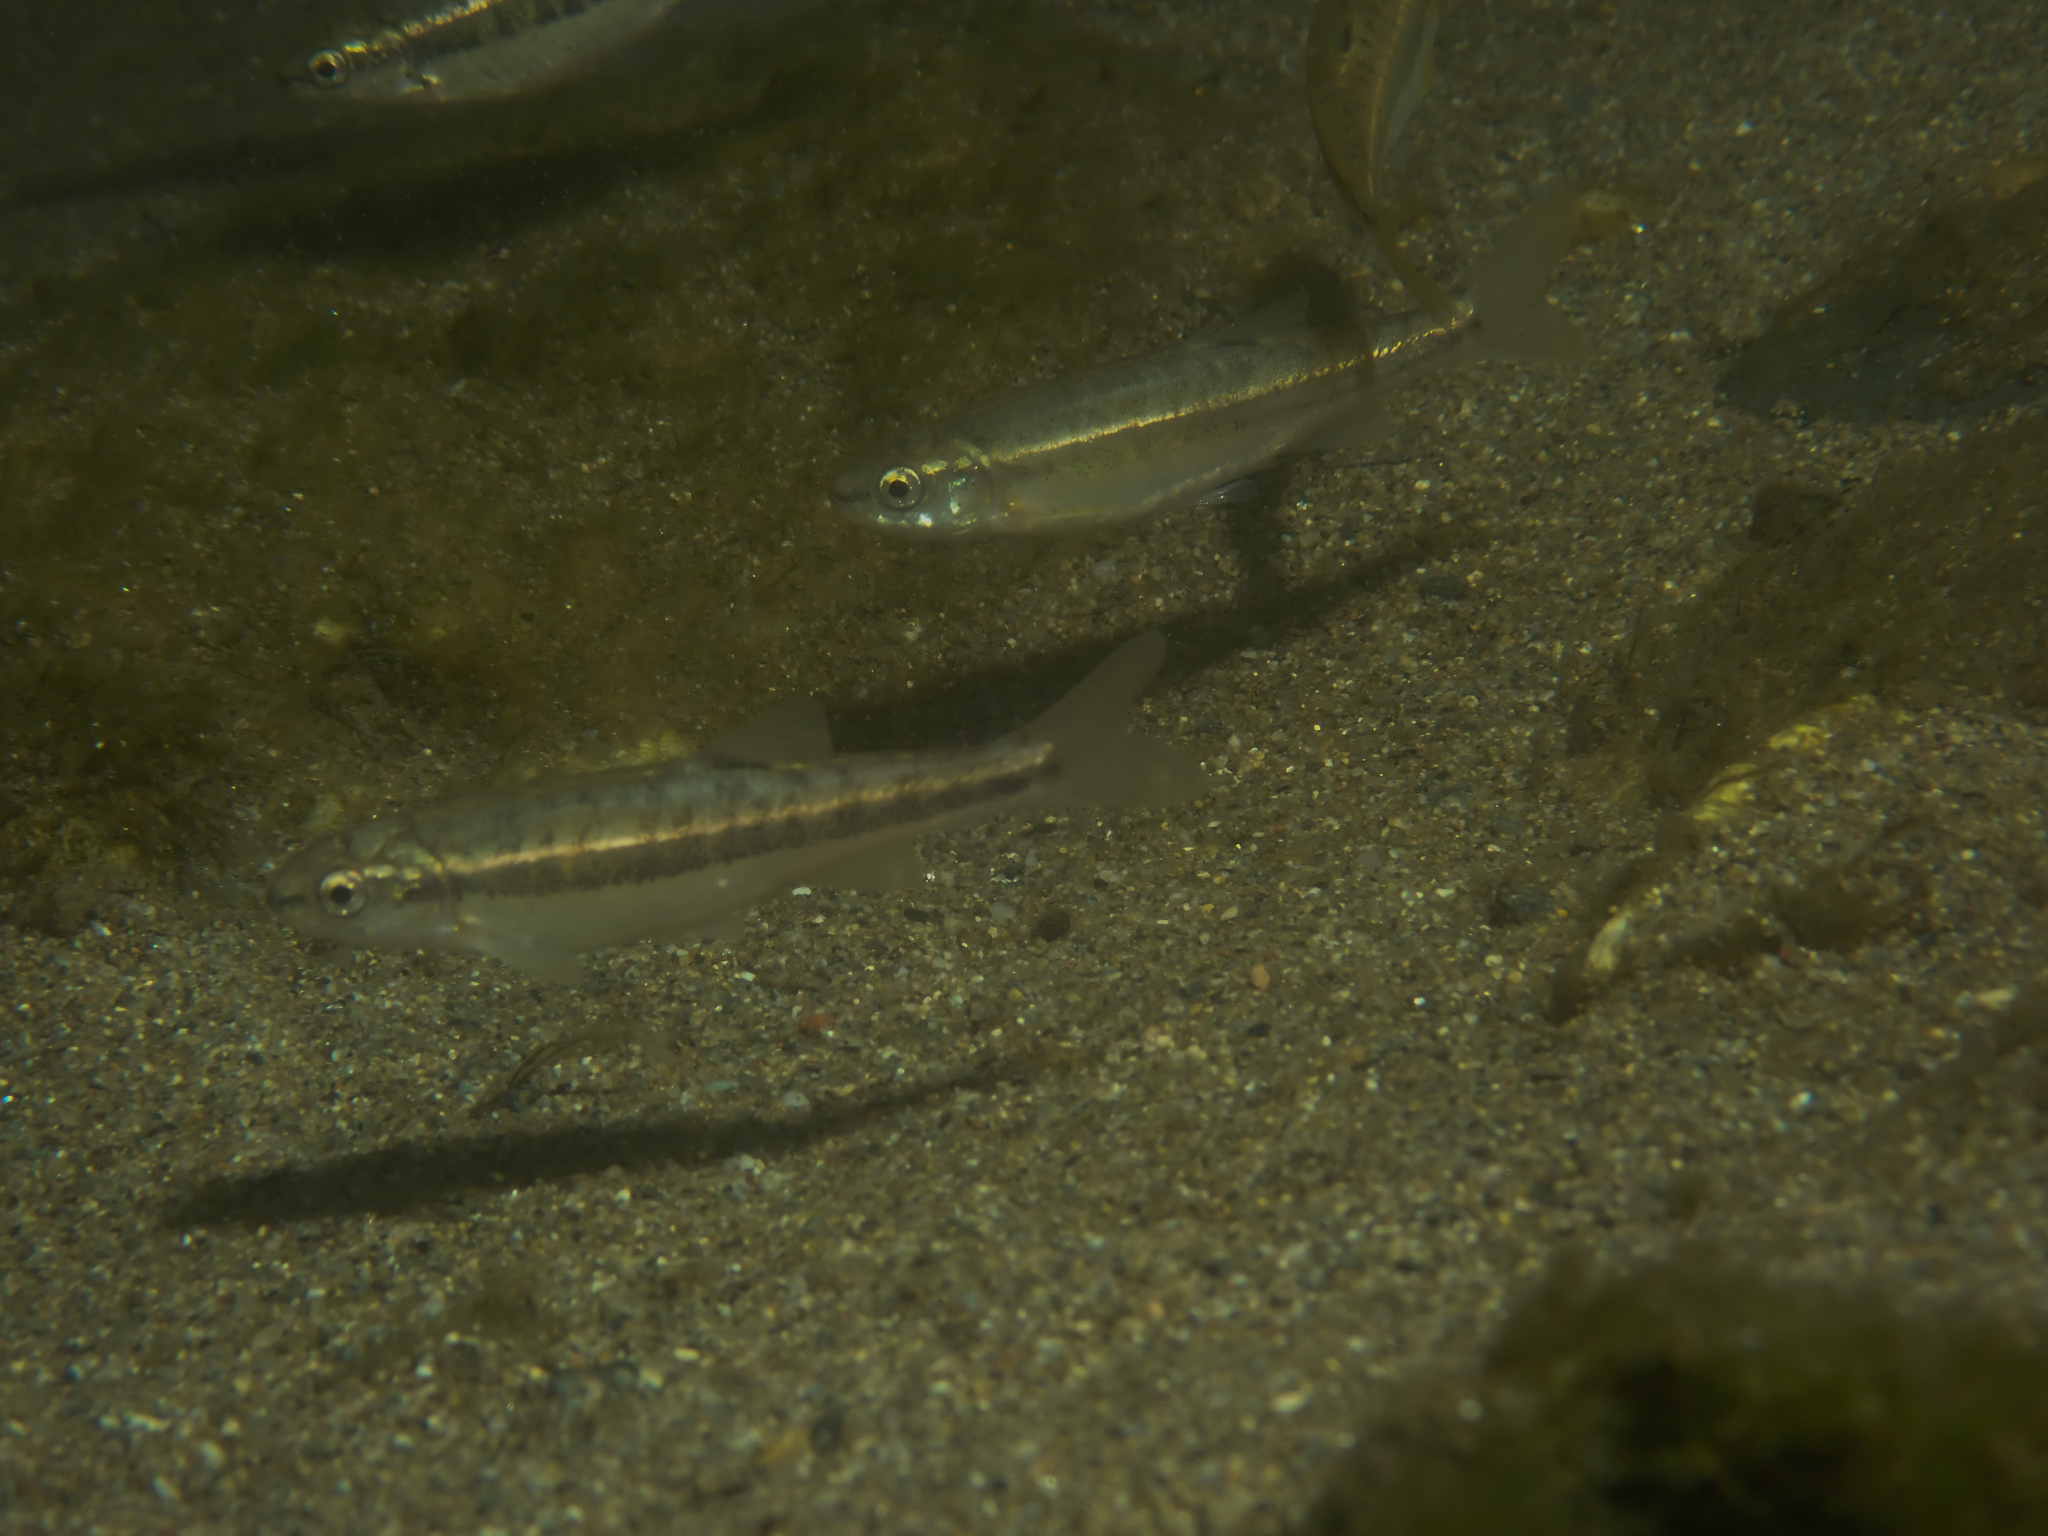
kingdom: Animalia
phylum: Chordata
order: Cypriniformes
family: Cyprinidae
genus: Phoxinus
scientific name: Phoxinus septimaniae
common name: Languedoc minnow
